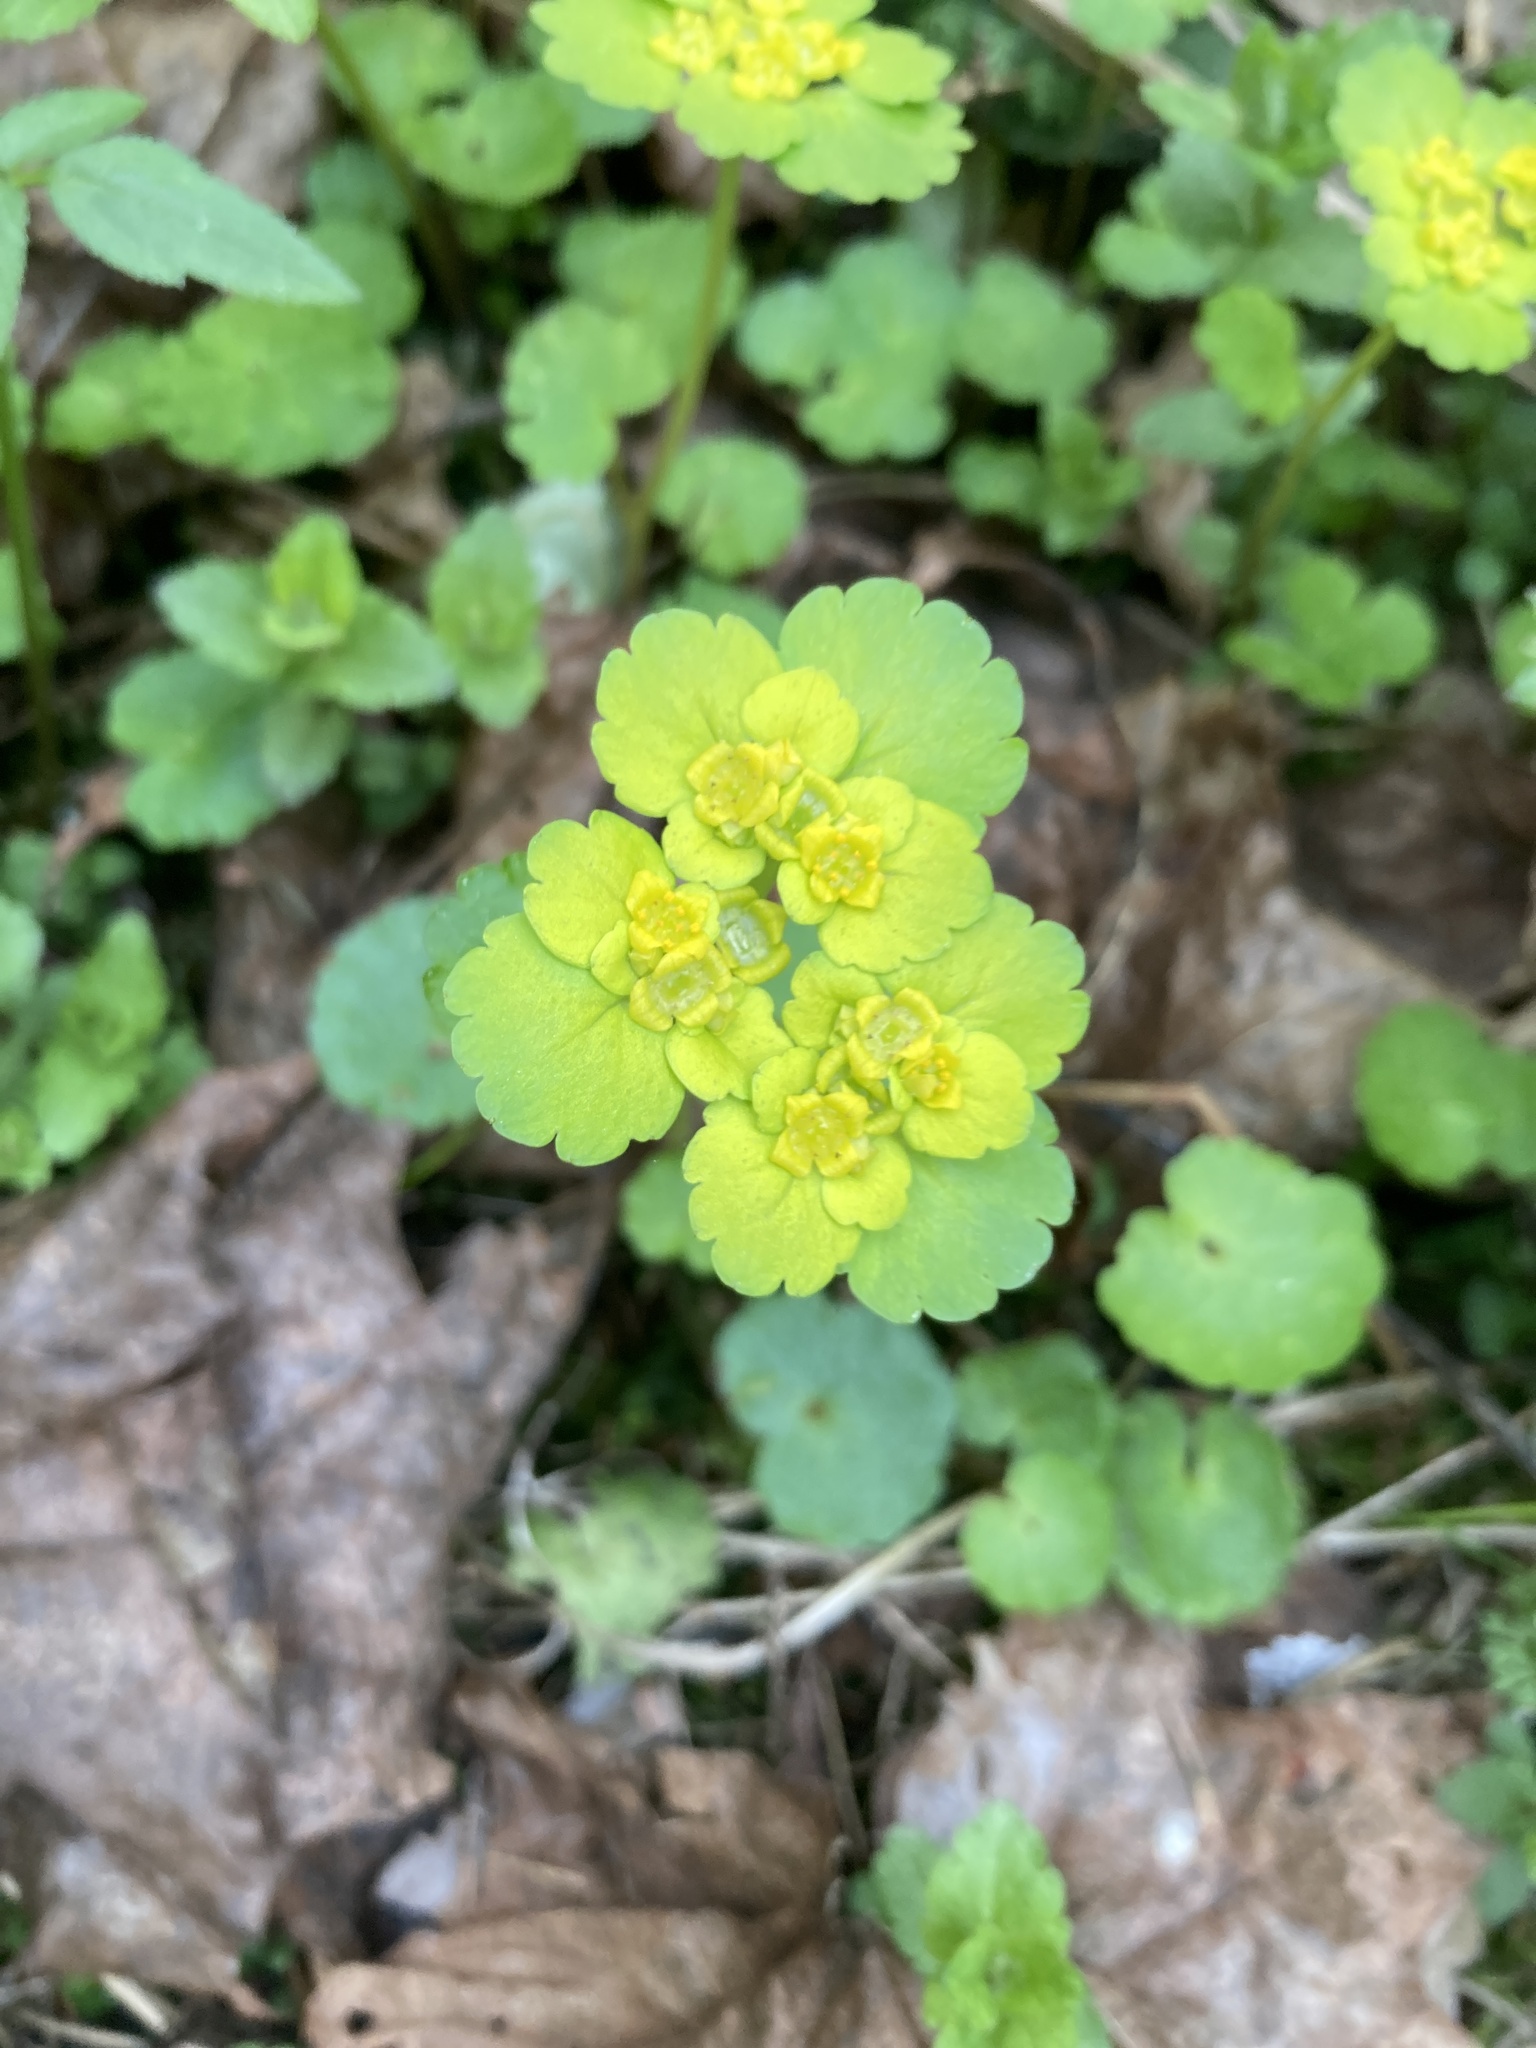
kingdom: Plantae
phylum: Tracheophyta
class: Magnoliopsida
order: Saxifragales
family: Saxifragaceae
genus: Chrysosplenium
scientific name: Chrysosplenium alternifolium
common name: Alternate-leaved golden-saxifrage
